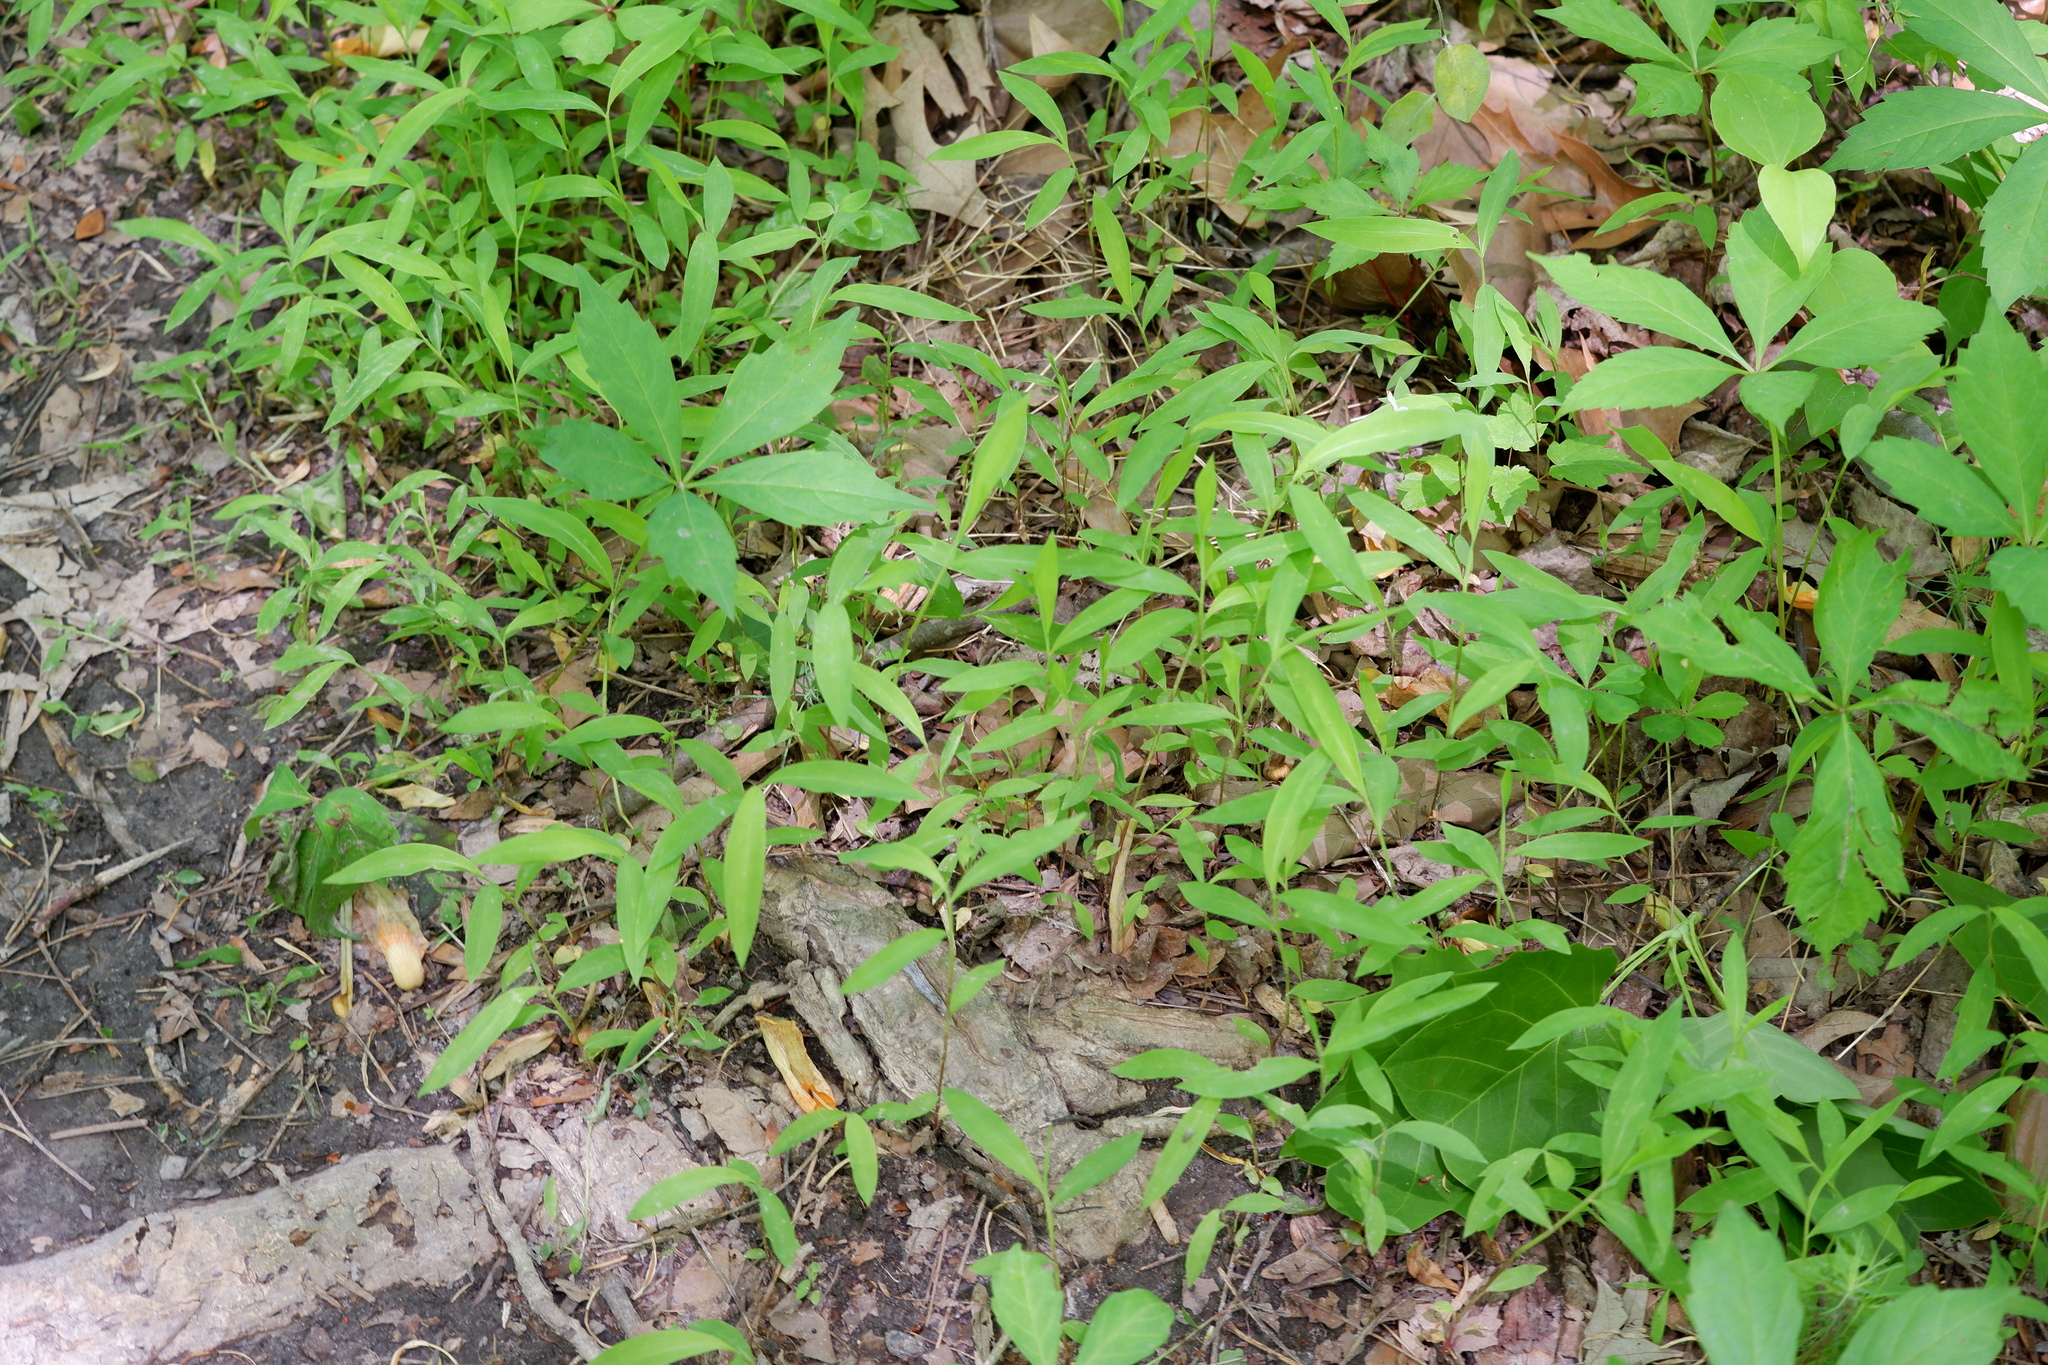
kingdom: Plantae
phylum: Tracheophyta
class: Liliopsida
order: Poales
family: Poaceae
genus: Microstegium
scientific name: Microstegium vimineum
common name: Japanese stiltgrass
